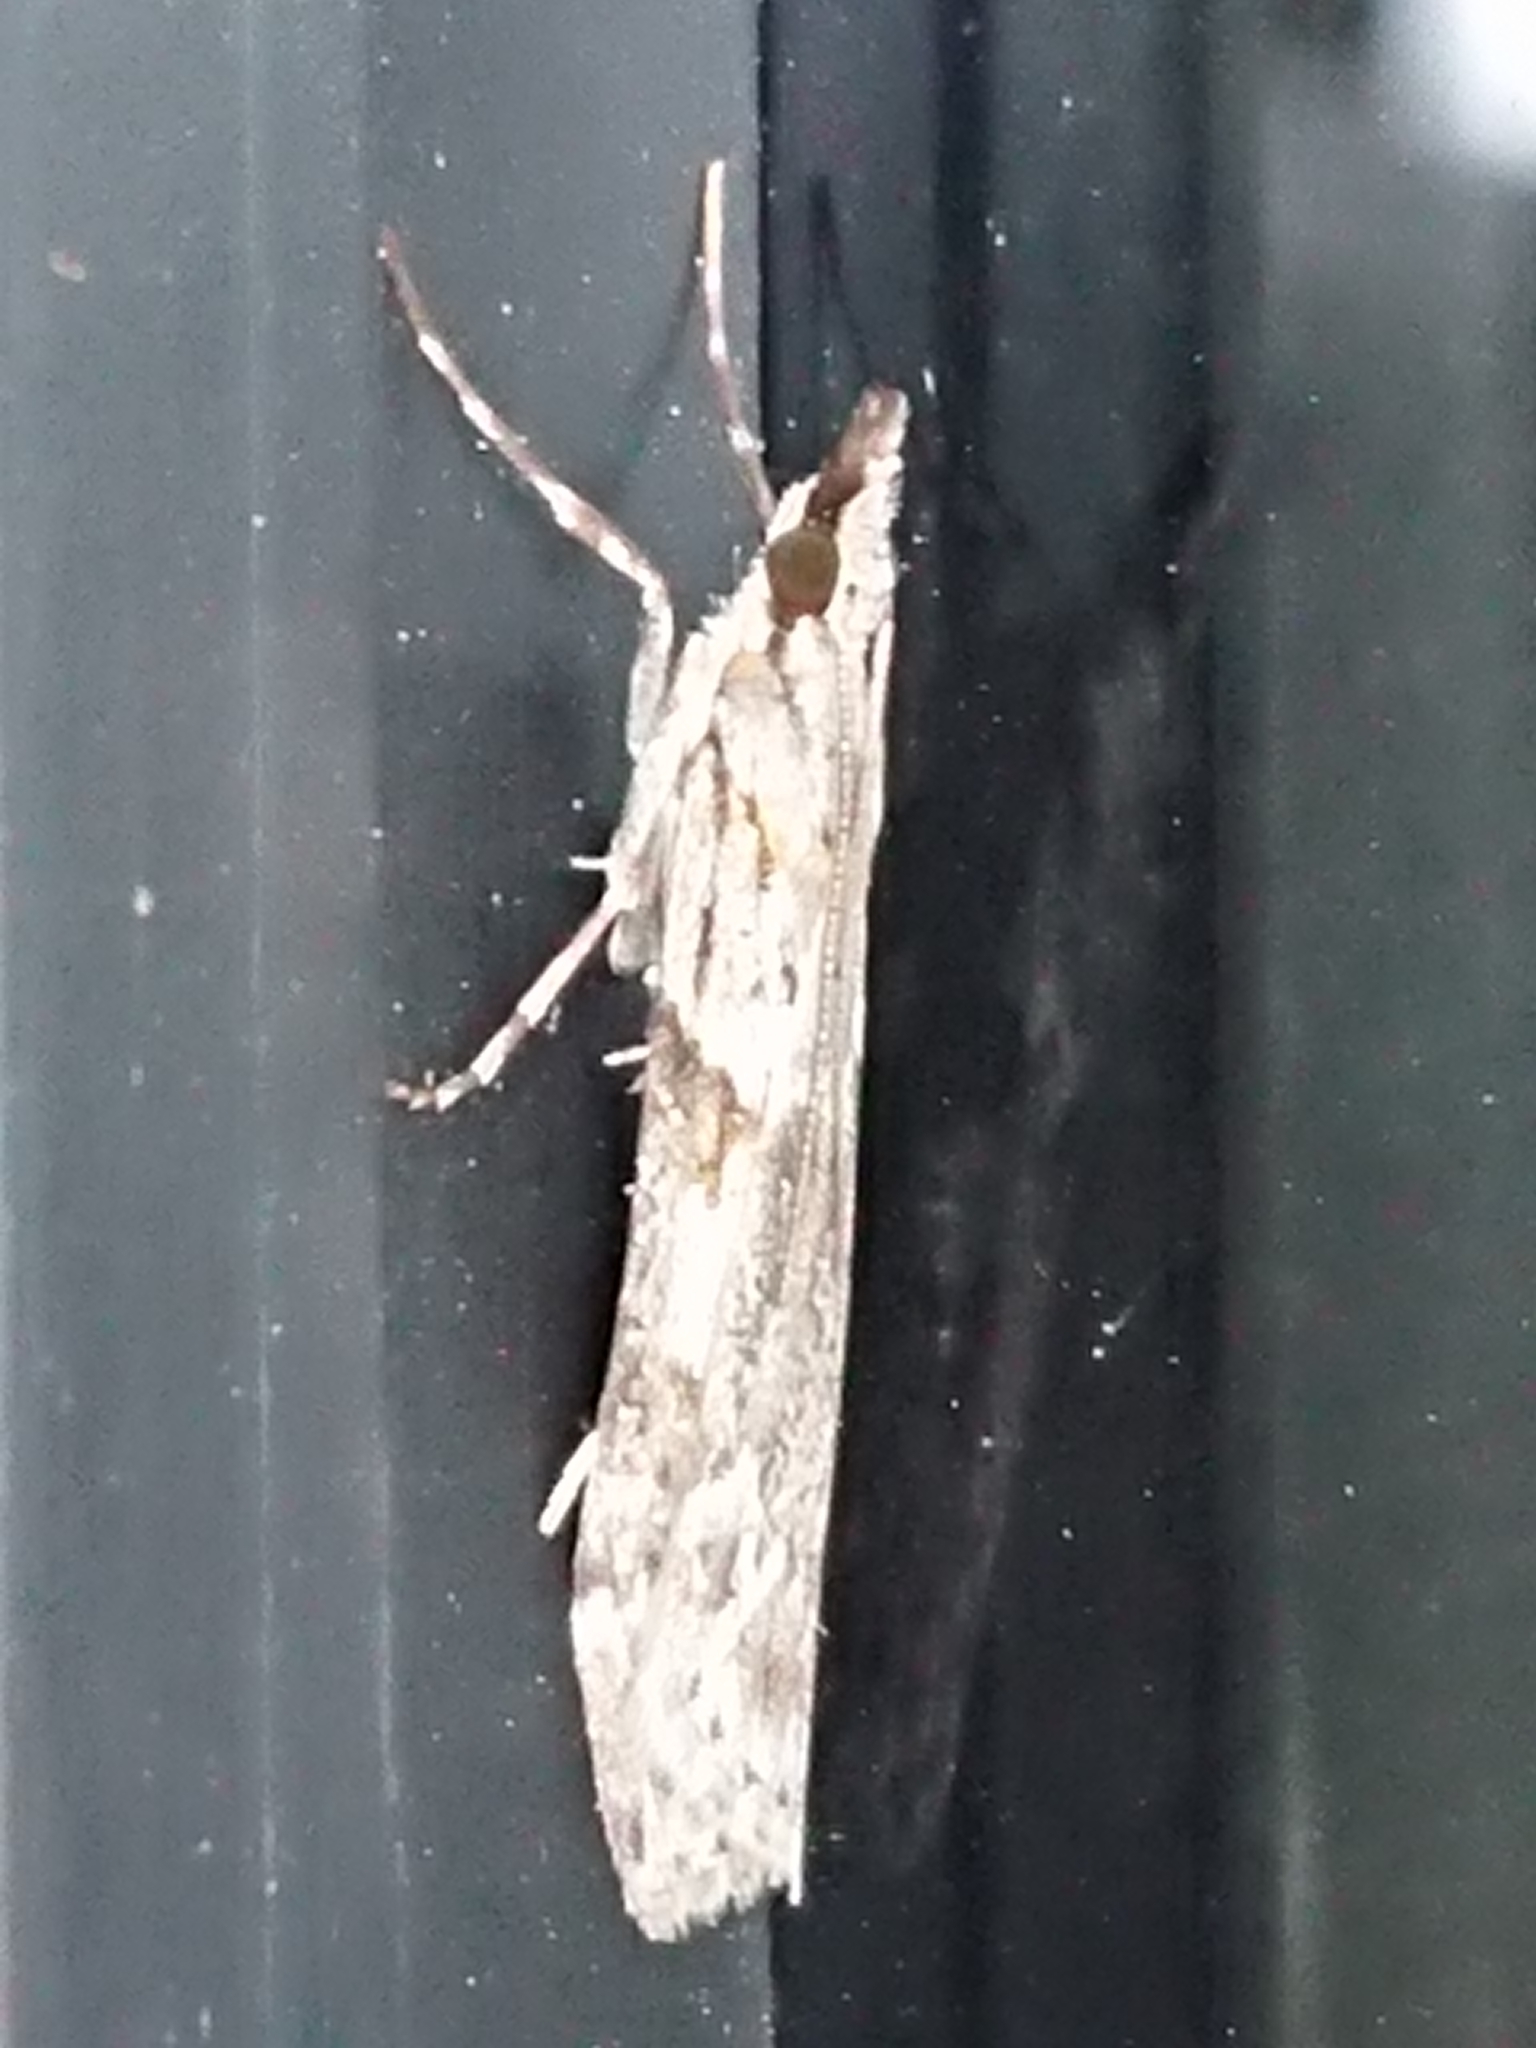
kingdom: Animalia
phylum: Arthropoda
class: Insecta
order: Lepidoptera
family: Crambidae
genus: Scoparia
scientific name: Scoparia halopis
